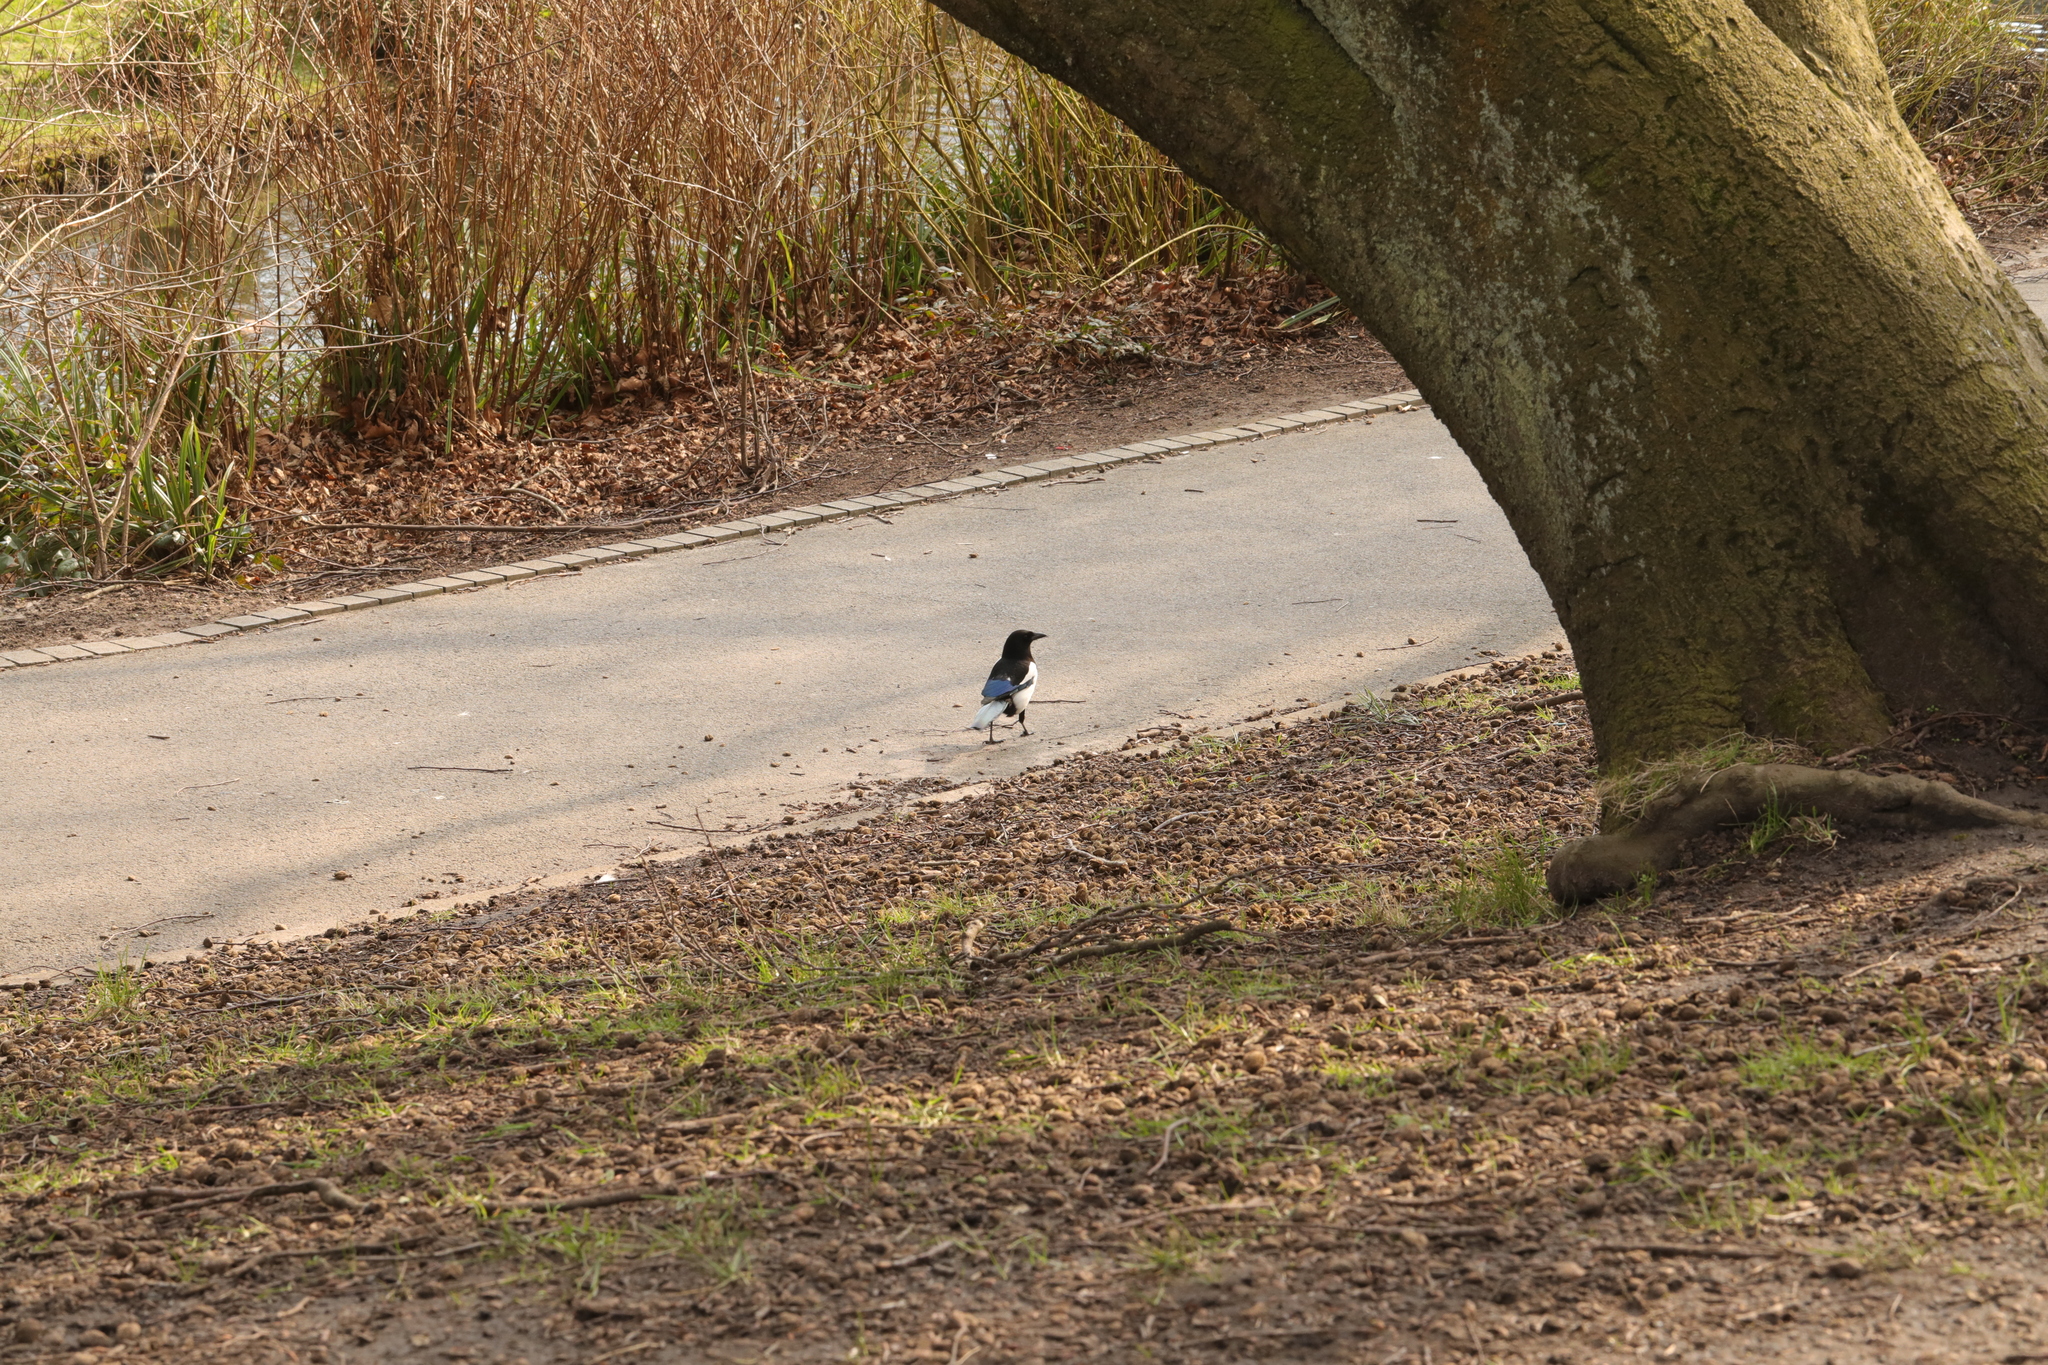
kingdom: Animalia
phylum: Chordata
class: Aves
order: Passeriformes
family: Corvidae
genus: Pica
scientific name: Pica pica
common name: Eurasian magpie
